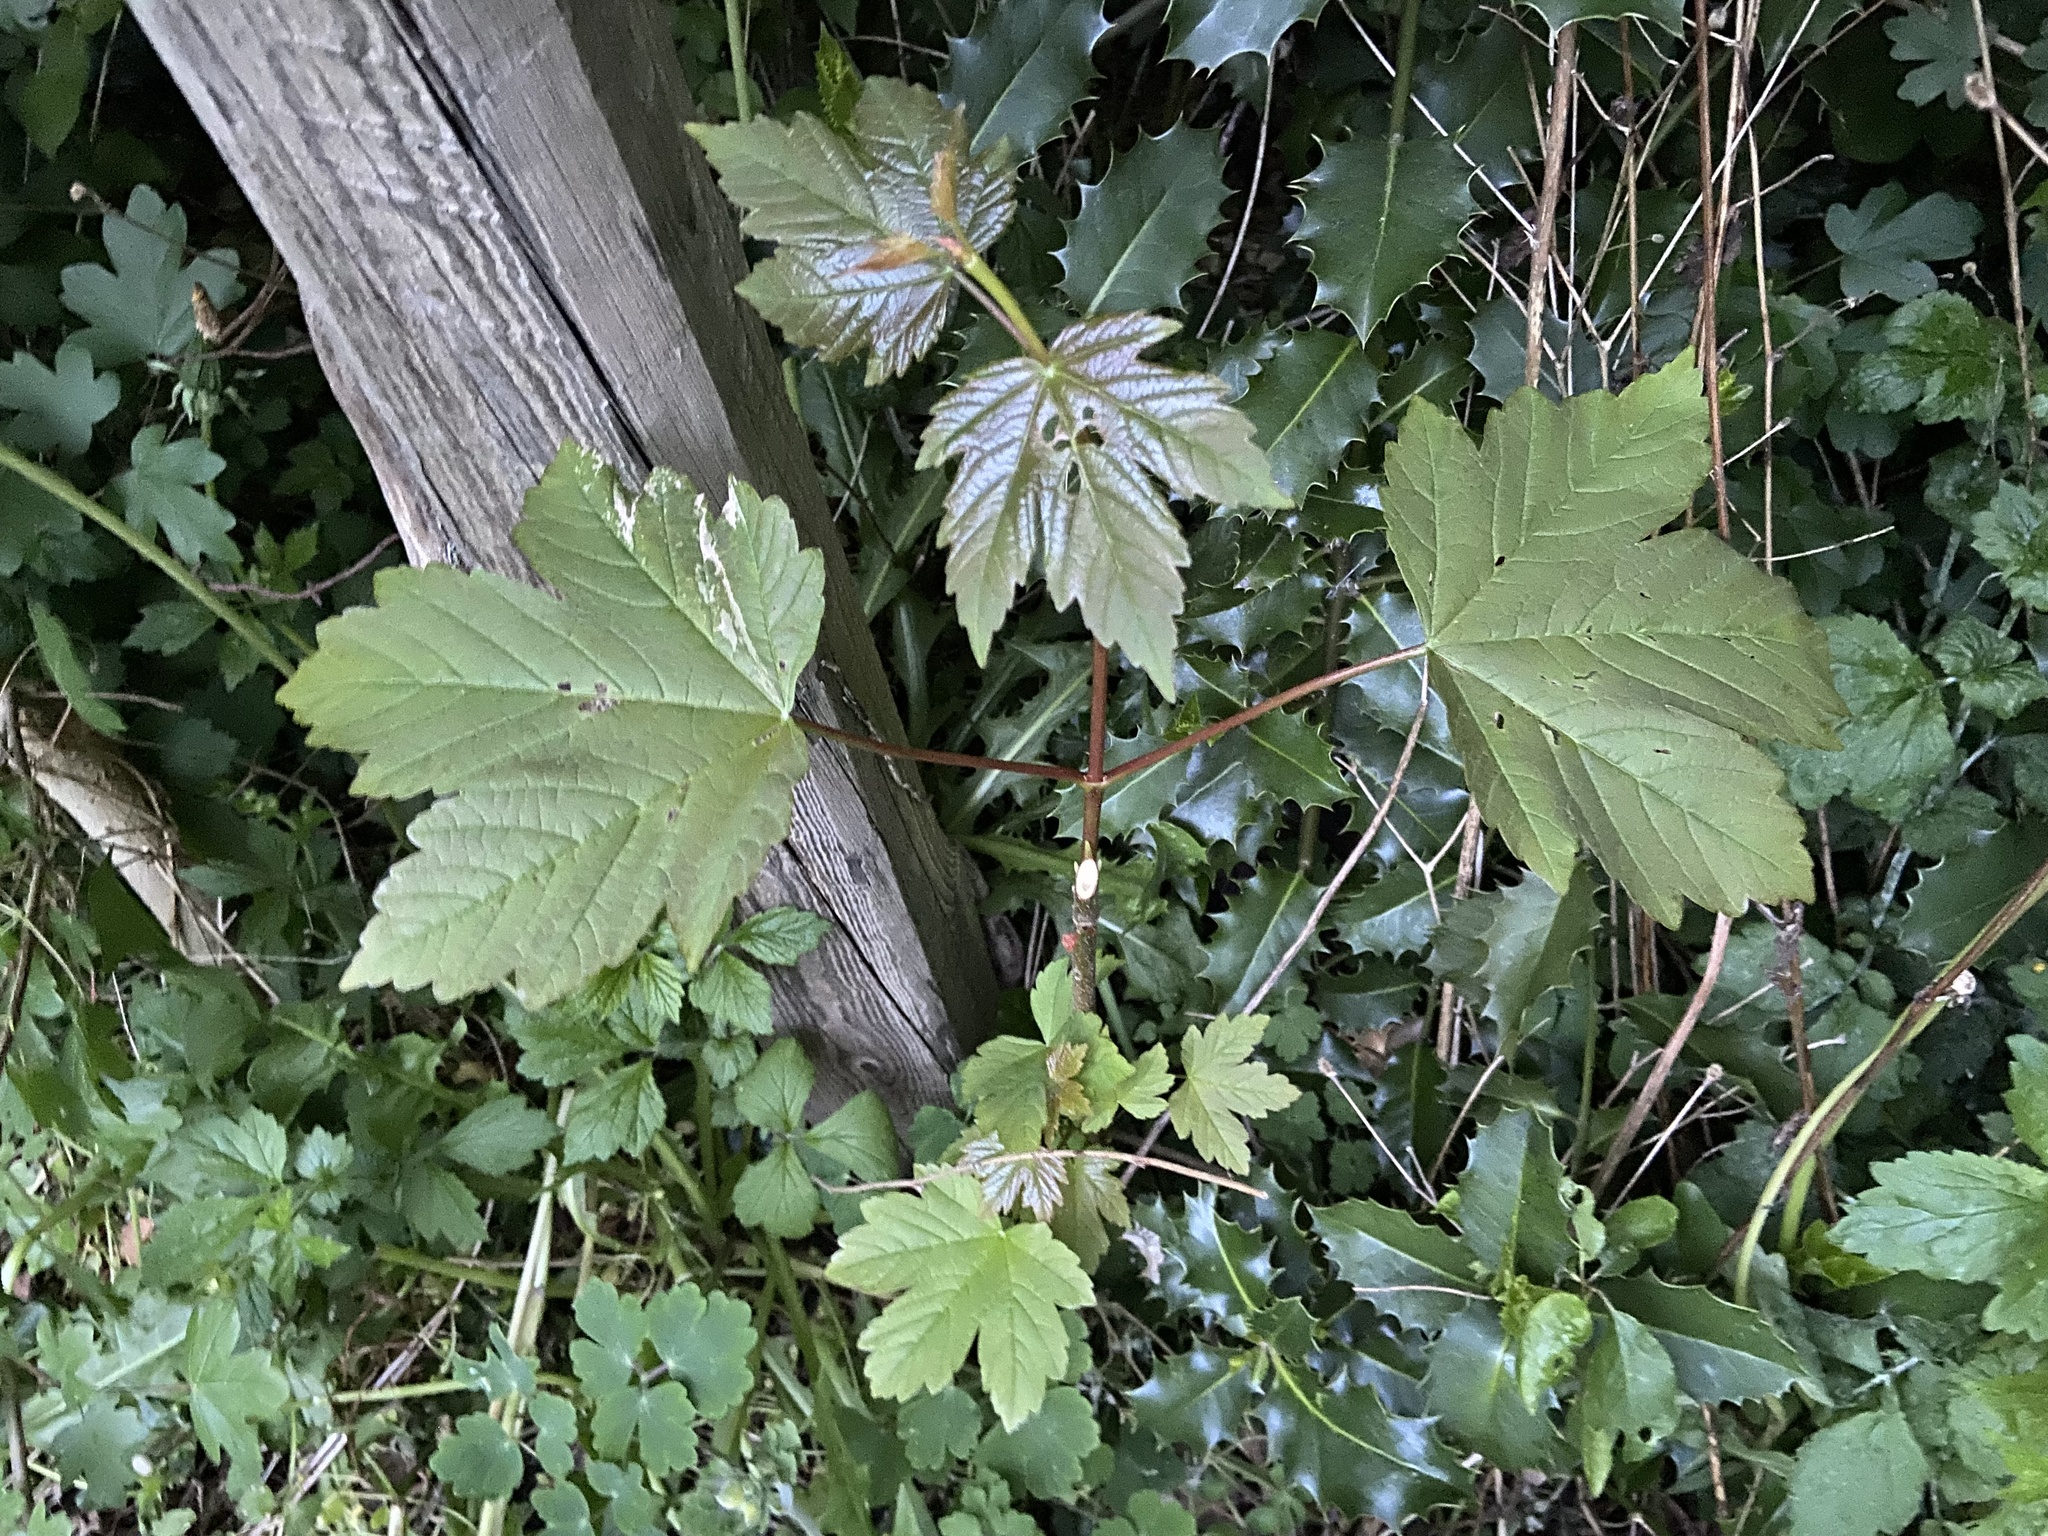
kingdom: Plantae
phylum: Tracheophyta
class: Magnoliopsida
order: Sapindales
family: Sapindaceae
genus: Acer
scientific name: Acer pseudoplatanus
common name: Sycamore
